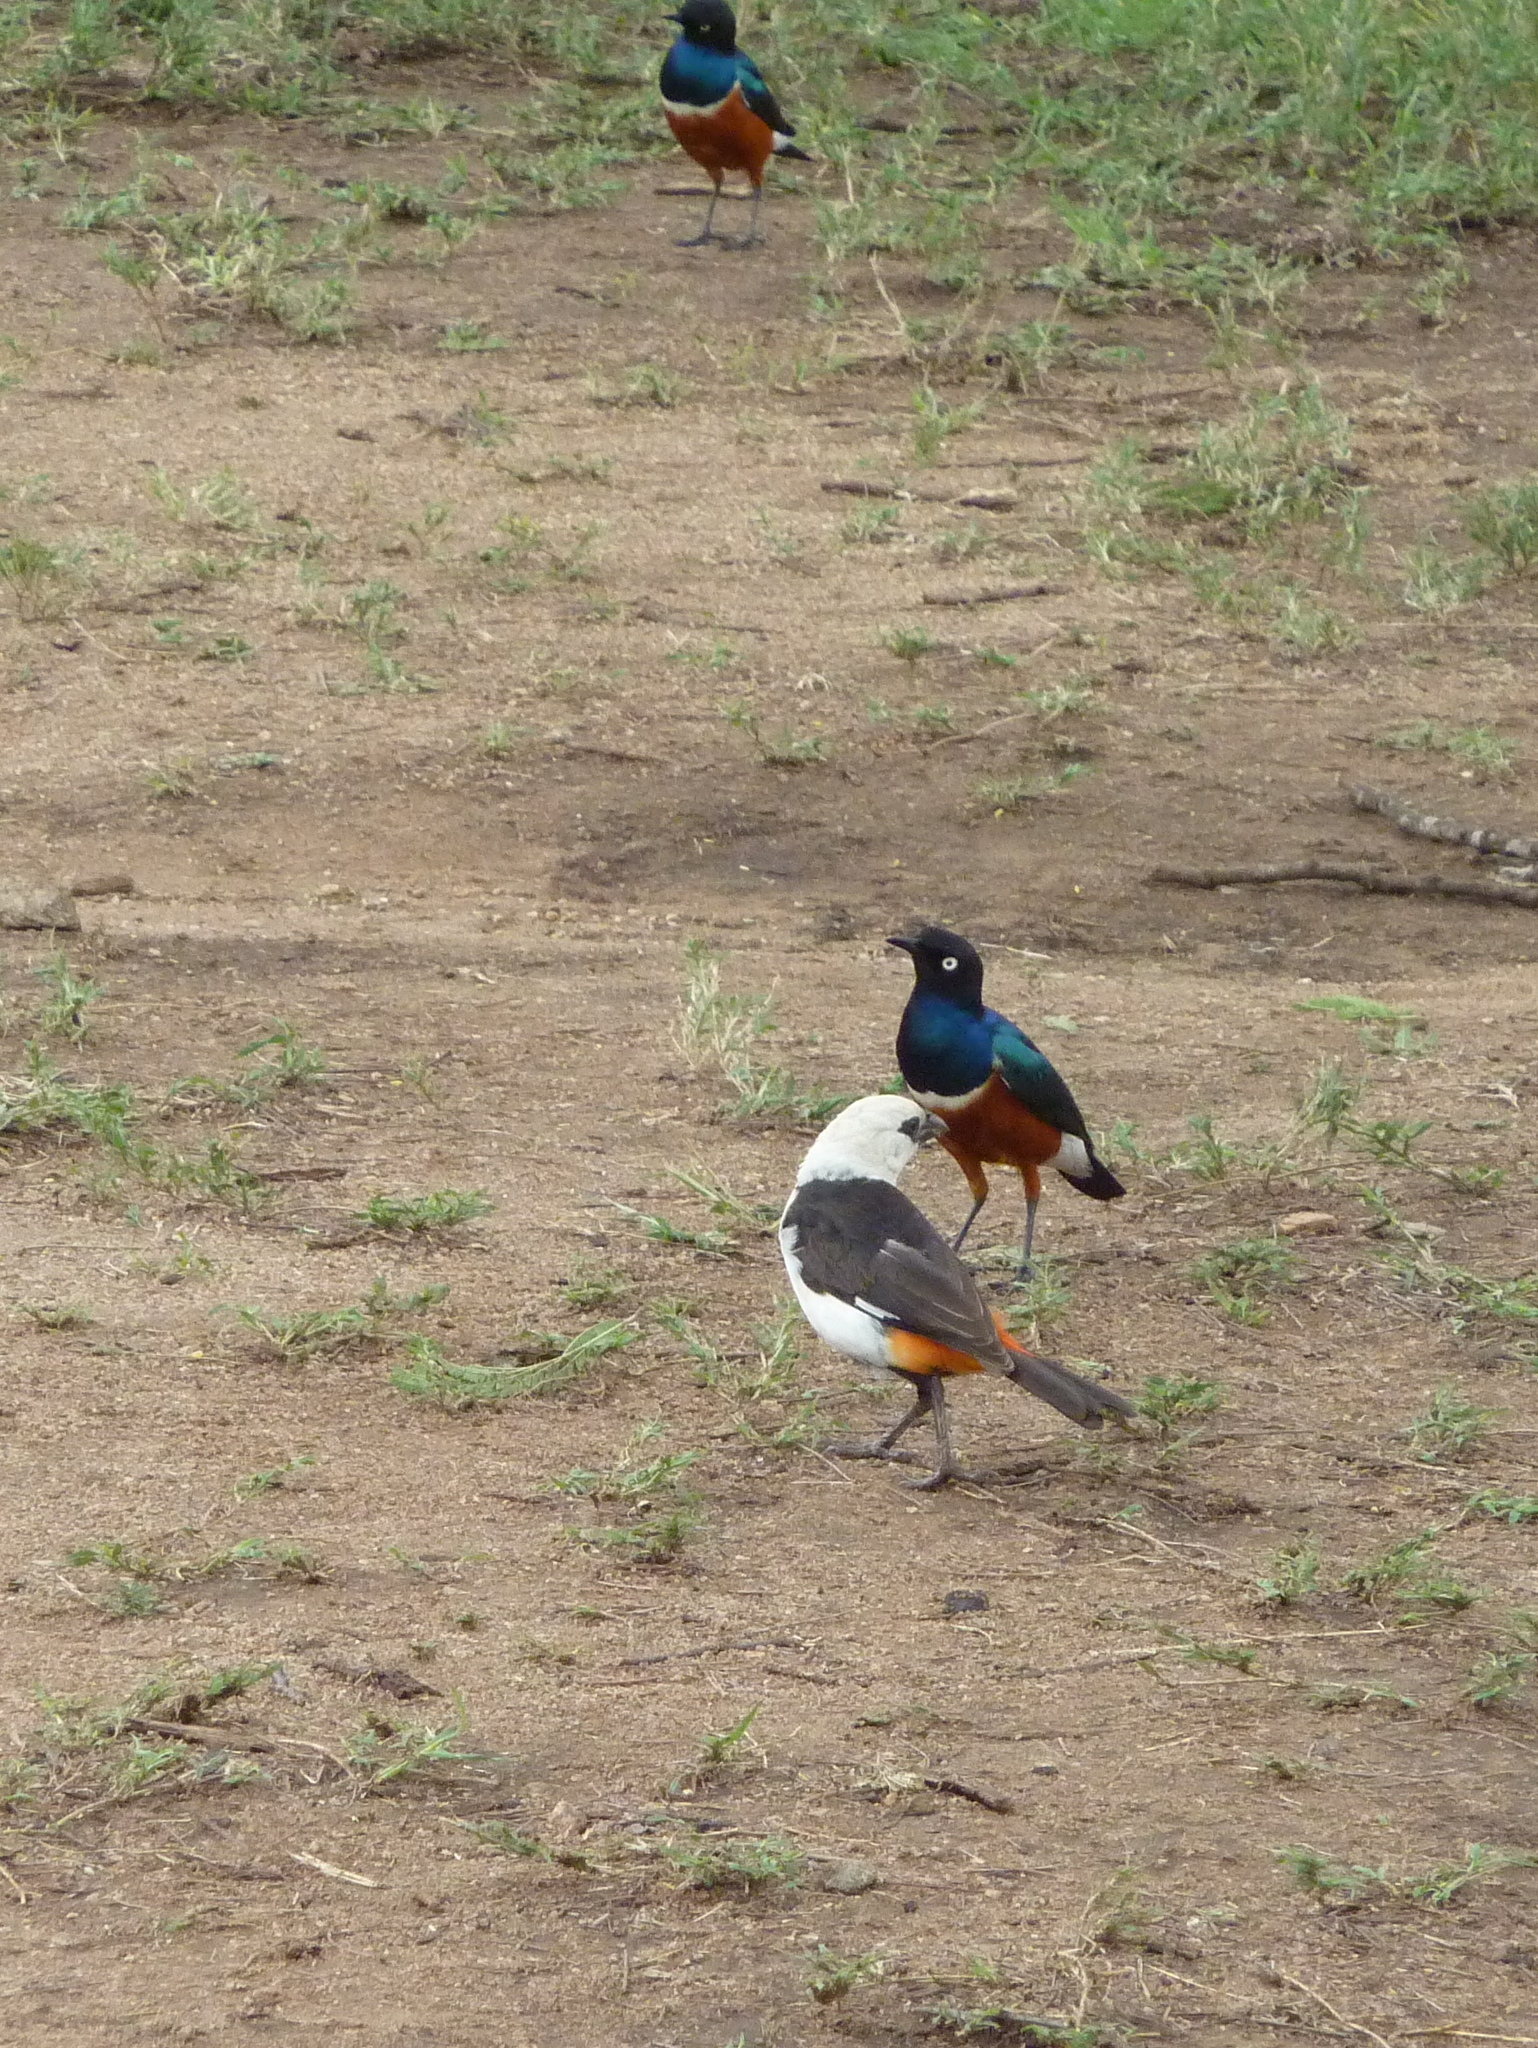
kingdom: Animalia
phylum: Chordata
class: Aves
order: Passeriformes
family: Sturnidae
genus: Lamprotornis
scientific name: Lamprotornis superbus
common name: Superb starling
